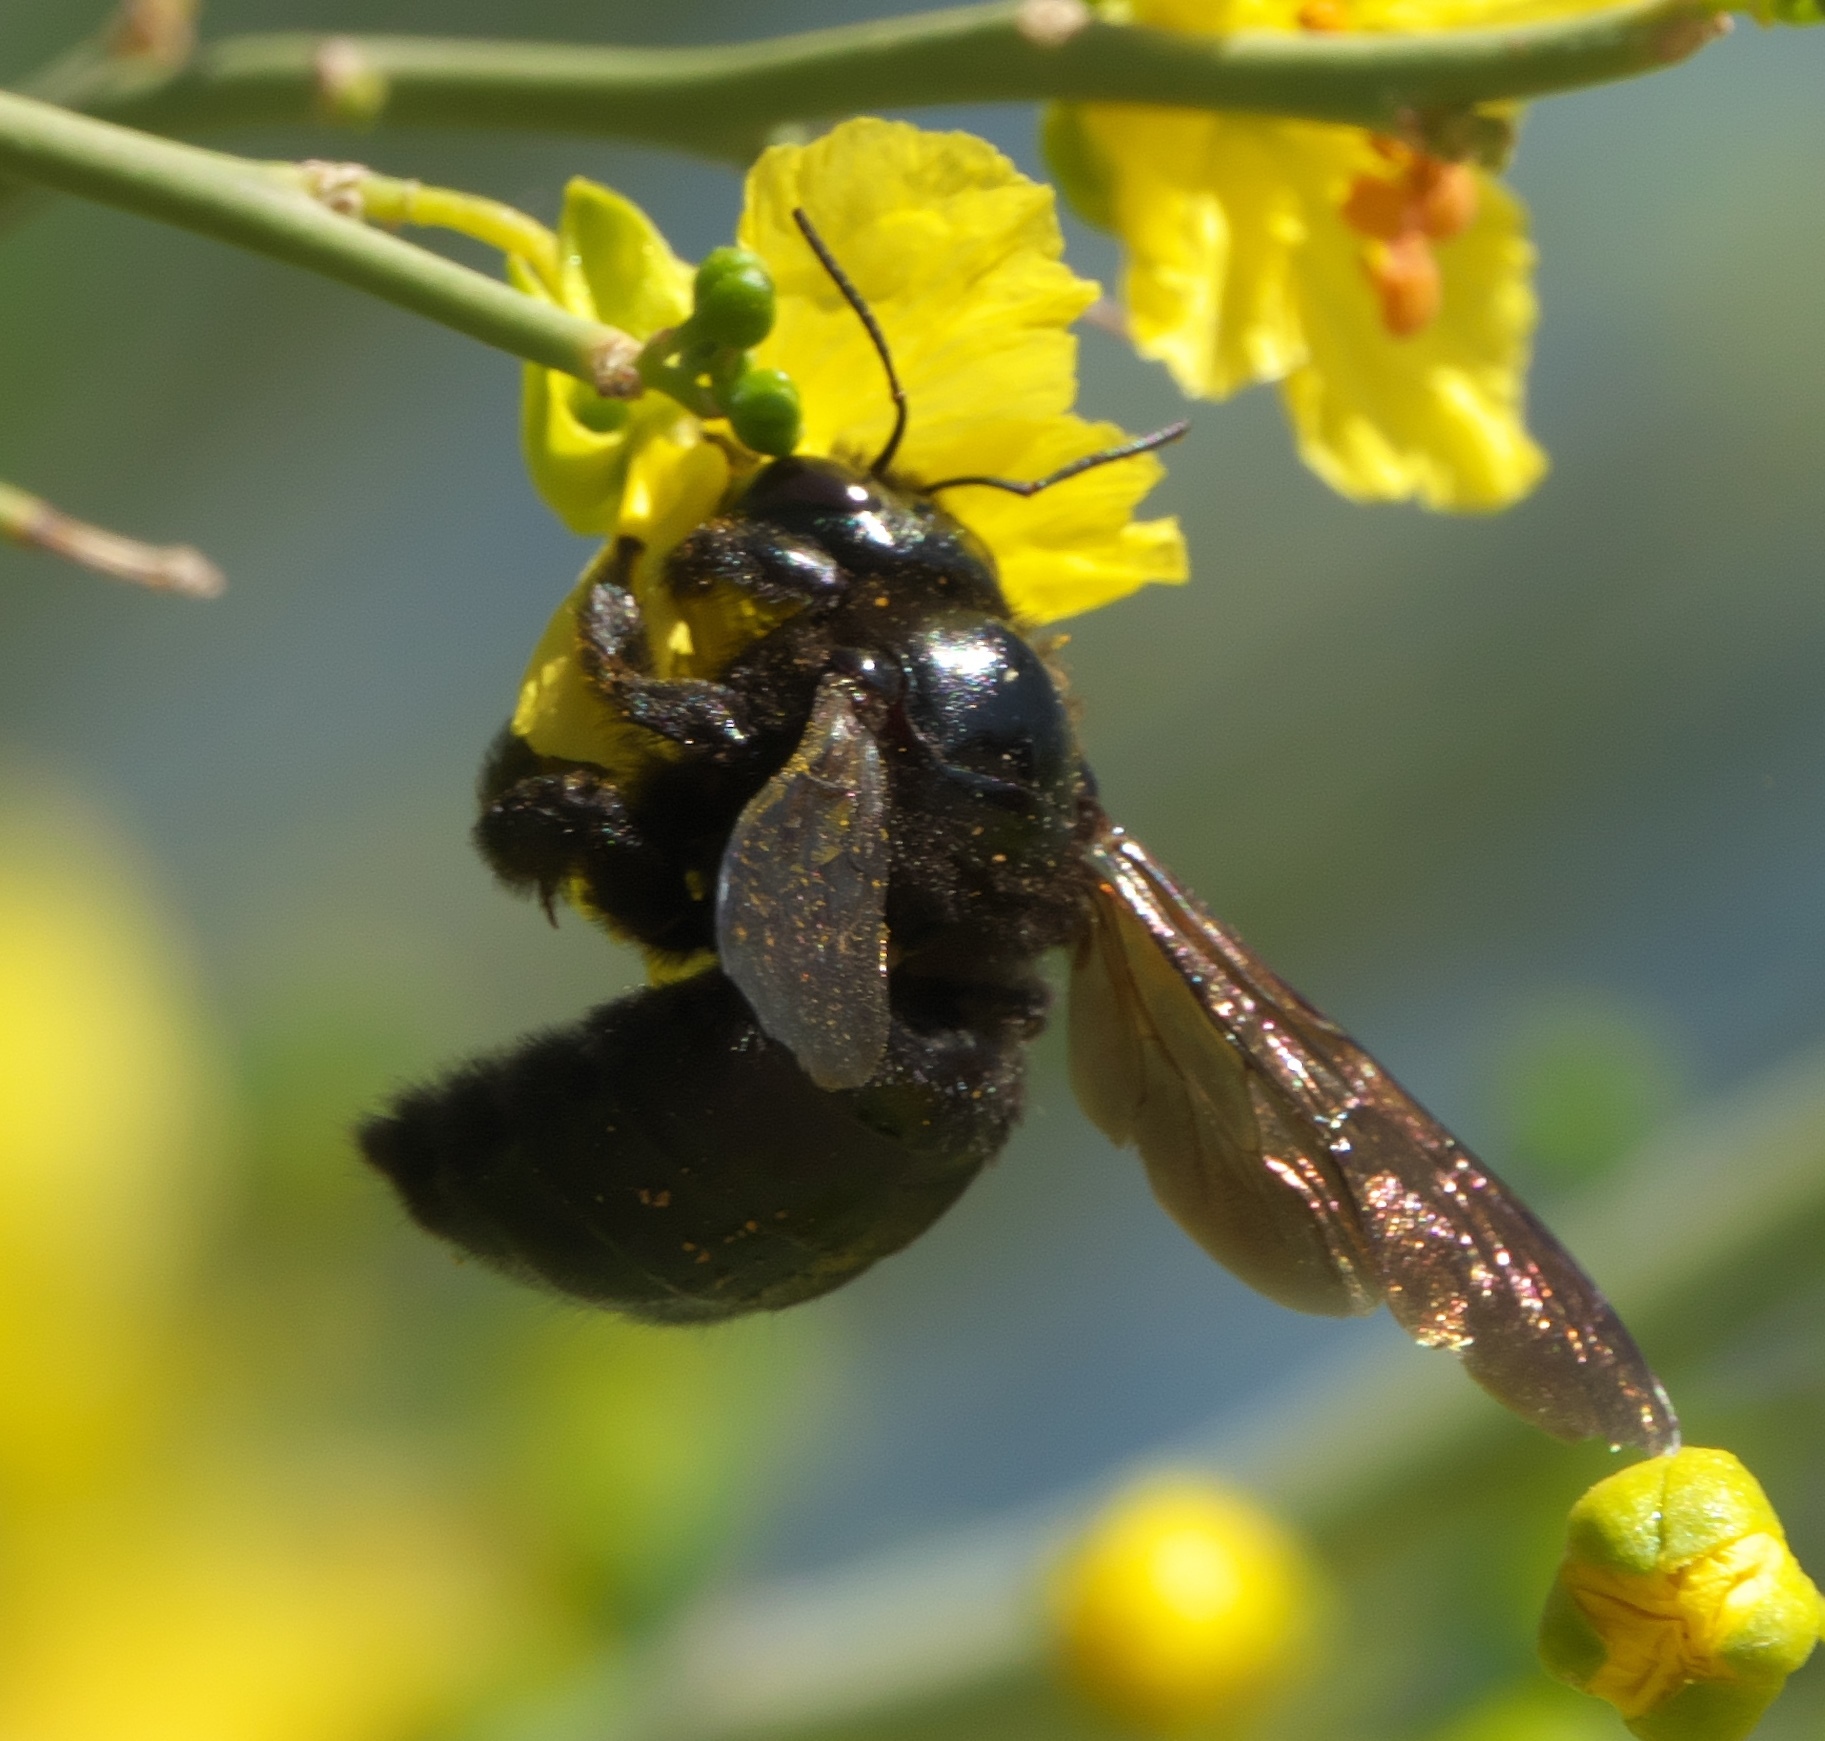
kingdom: Animalia
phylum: Arthropoda
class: Insecta
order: Hymenoptera
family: Apidae
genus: Xylocopa
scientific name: Xylocopa sonorina
